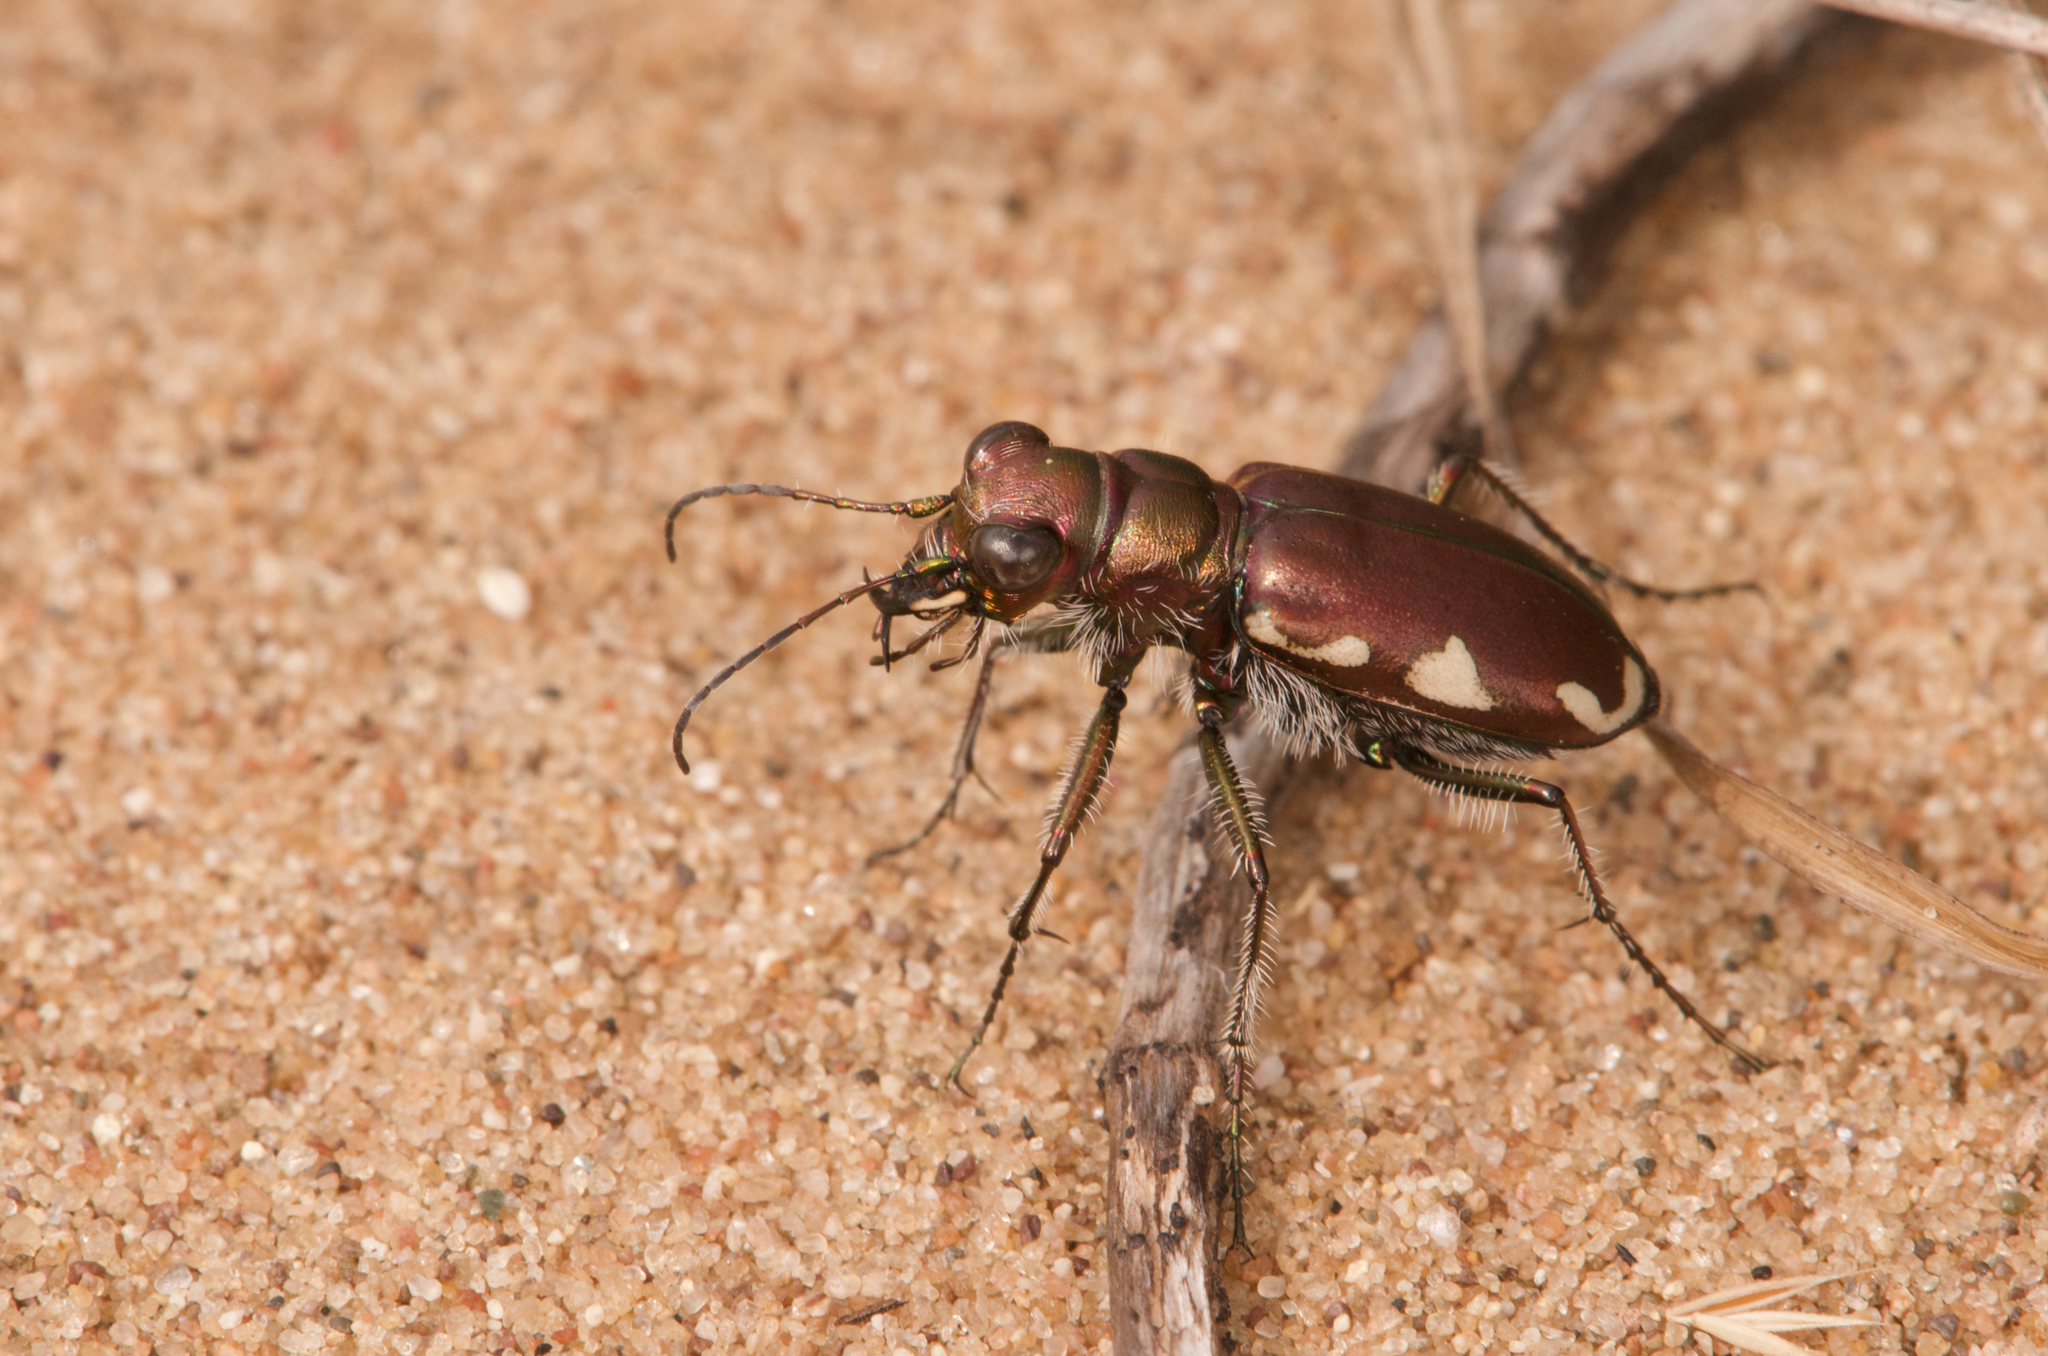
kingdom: Animalia
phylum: Arthropoda
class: Insecta
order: Coleoptera
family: Carabidae
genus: Cicindela
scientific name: Cicindela scutellaris
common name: Festive tiger beetle
